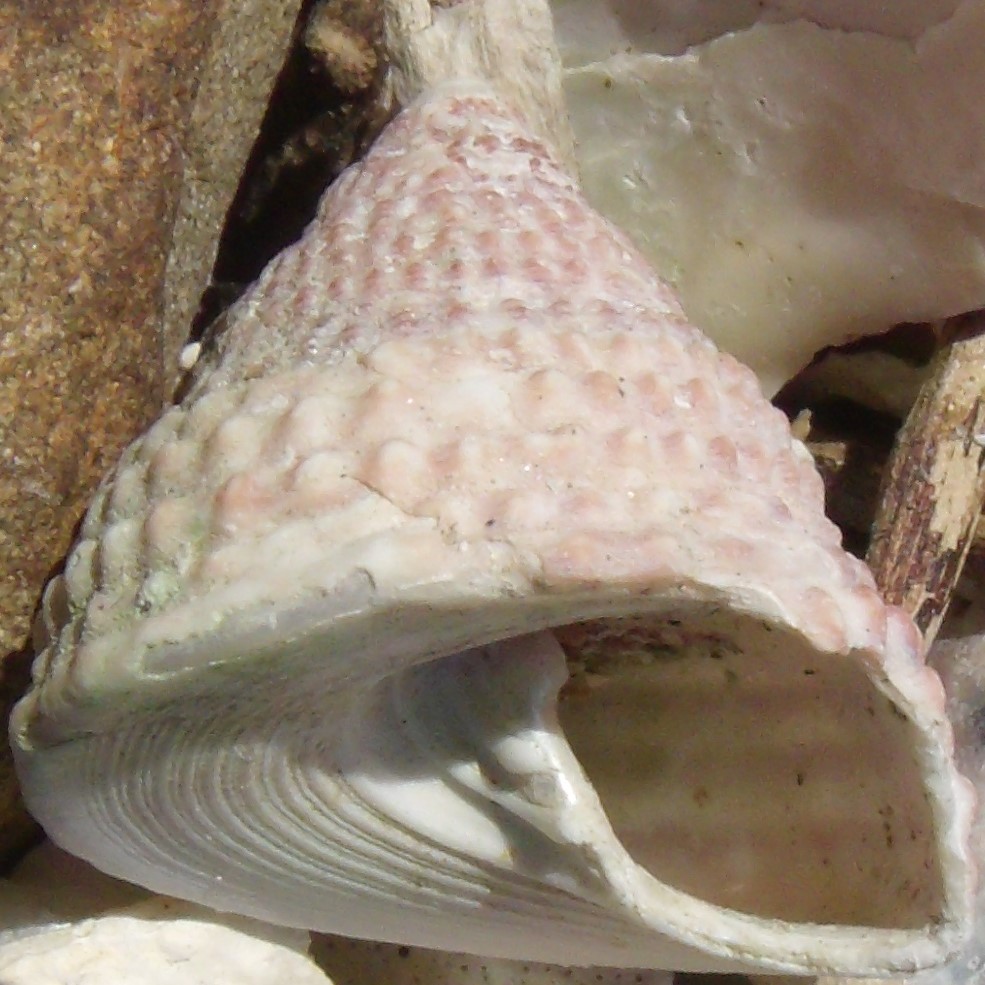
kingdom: Animalia
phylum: Mollusca
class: Gastropoda
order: Trochida
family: Trochidae
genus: Coelotrochus
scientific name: Coelotrochus viridis
